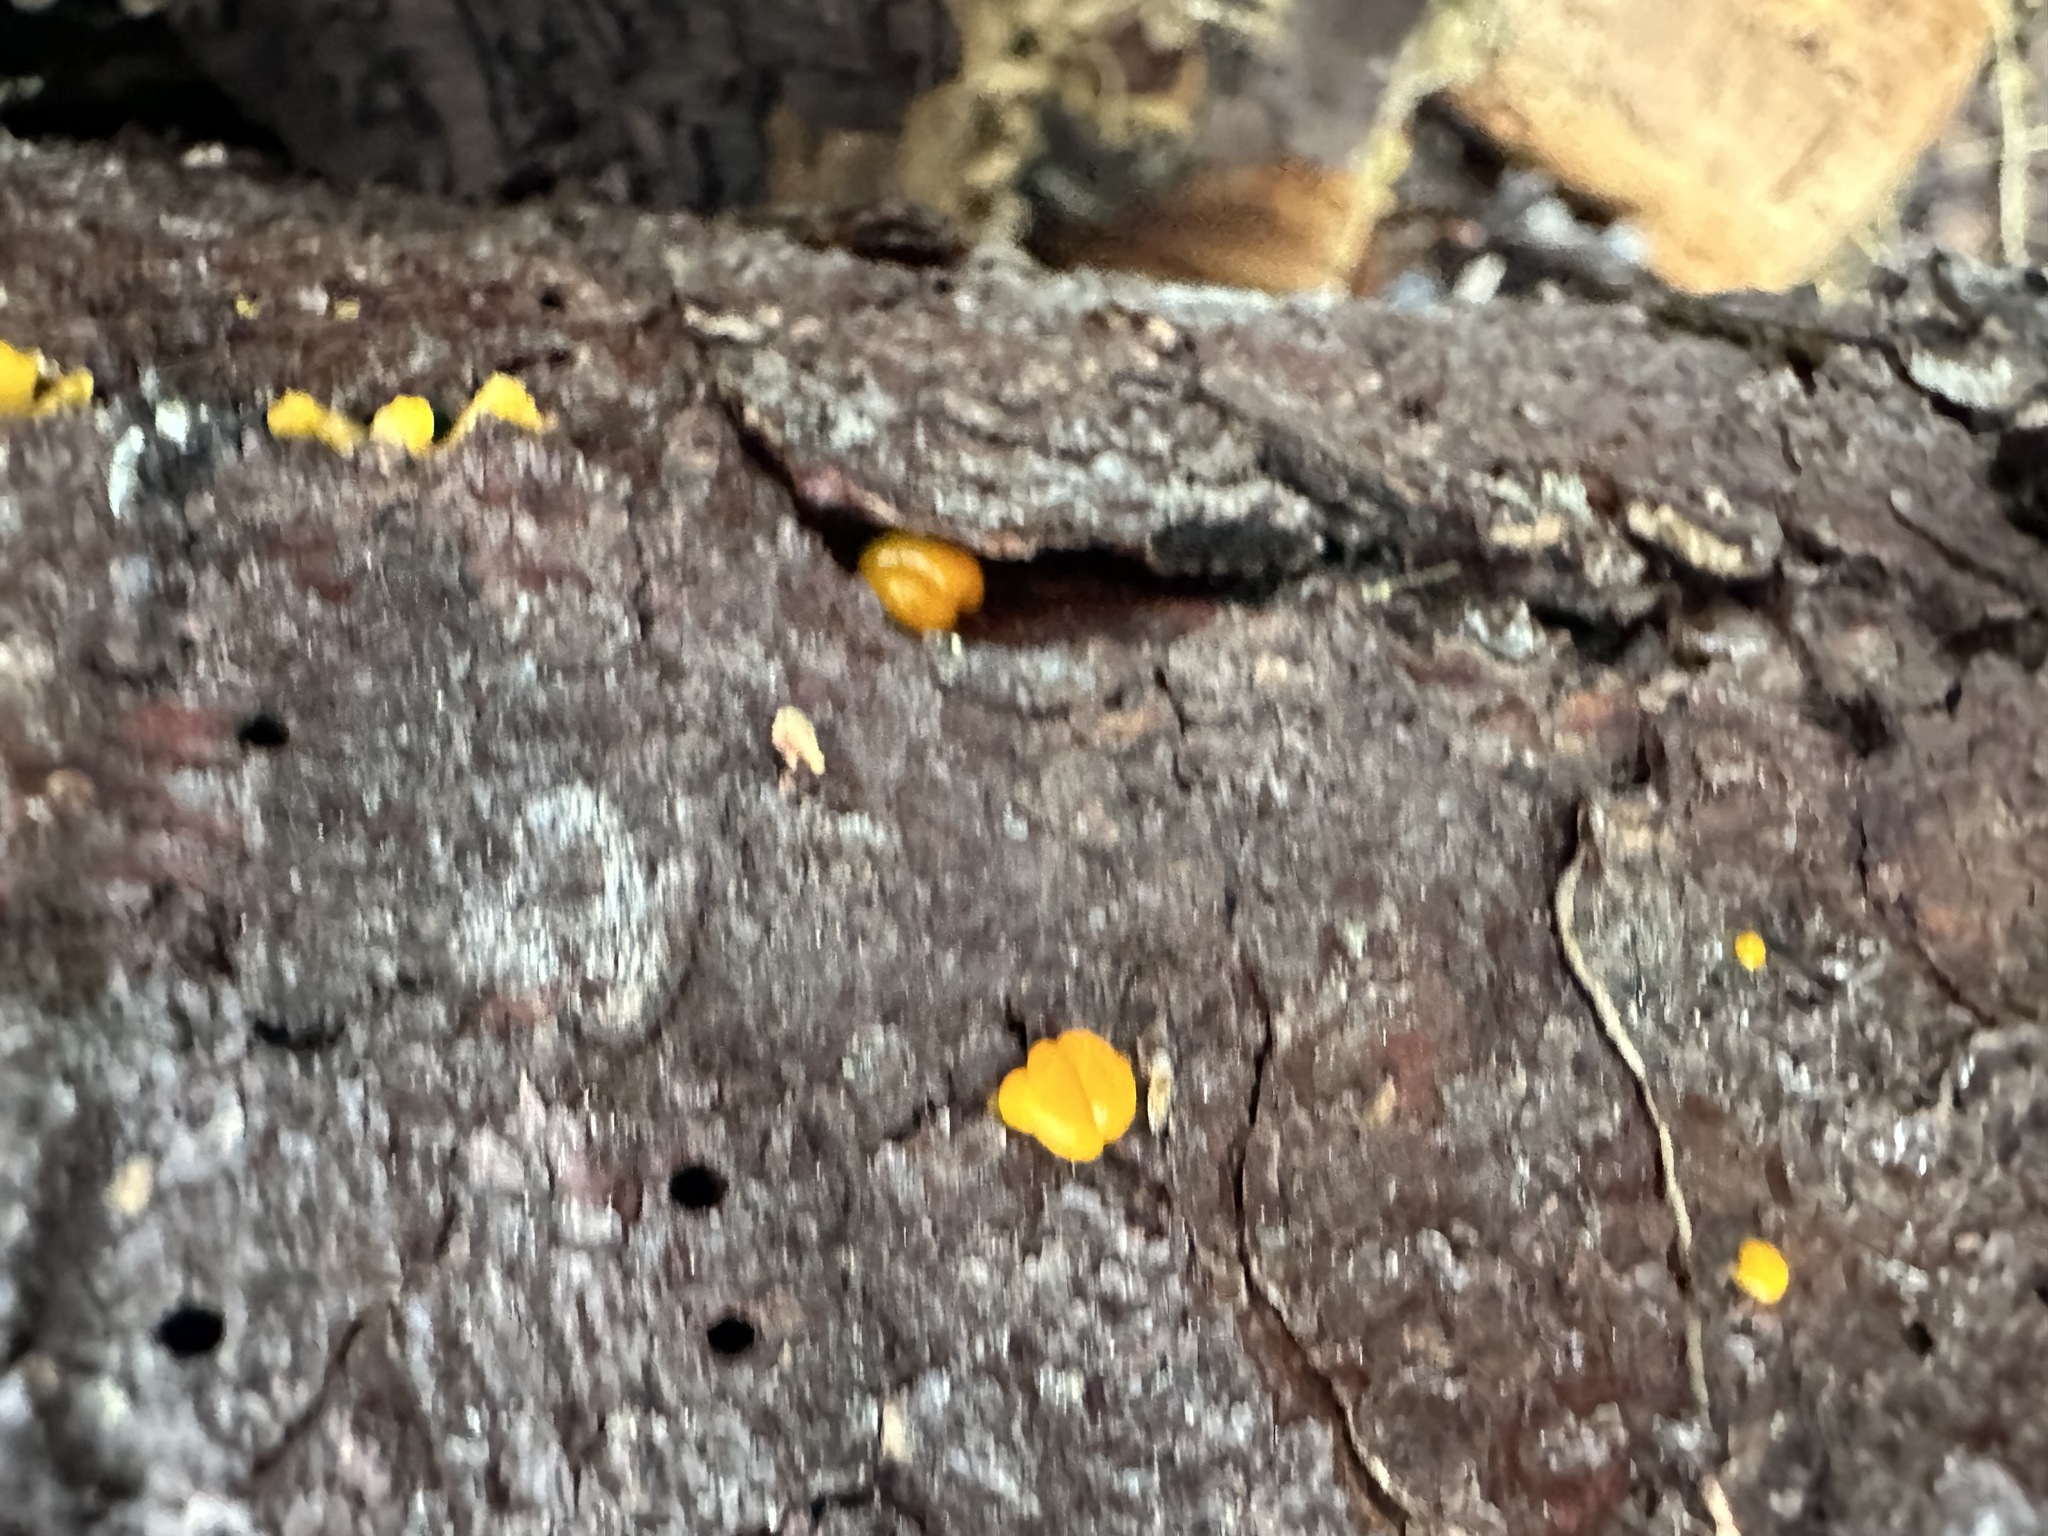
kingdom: Fungi
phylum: Basidiomycota
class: Dacrymycetes
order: Dacrymycetales
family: Dacrymycetaceae
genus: Dacrymyces
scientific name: Dacrymyces chrysospermus
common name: Orange jelly spot
